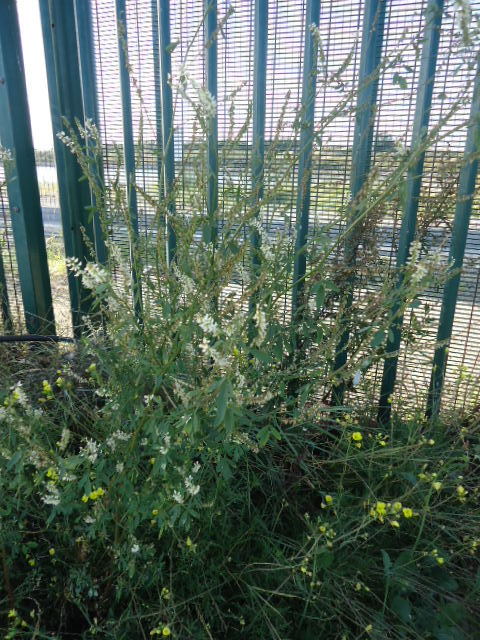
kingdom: Plantae
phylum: Tracheophyta
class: Magnoliopsida
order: Fabales
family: Fabaceae
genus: Melilotus
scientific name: Melilotus albus
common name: White melilot
